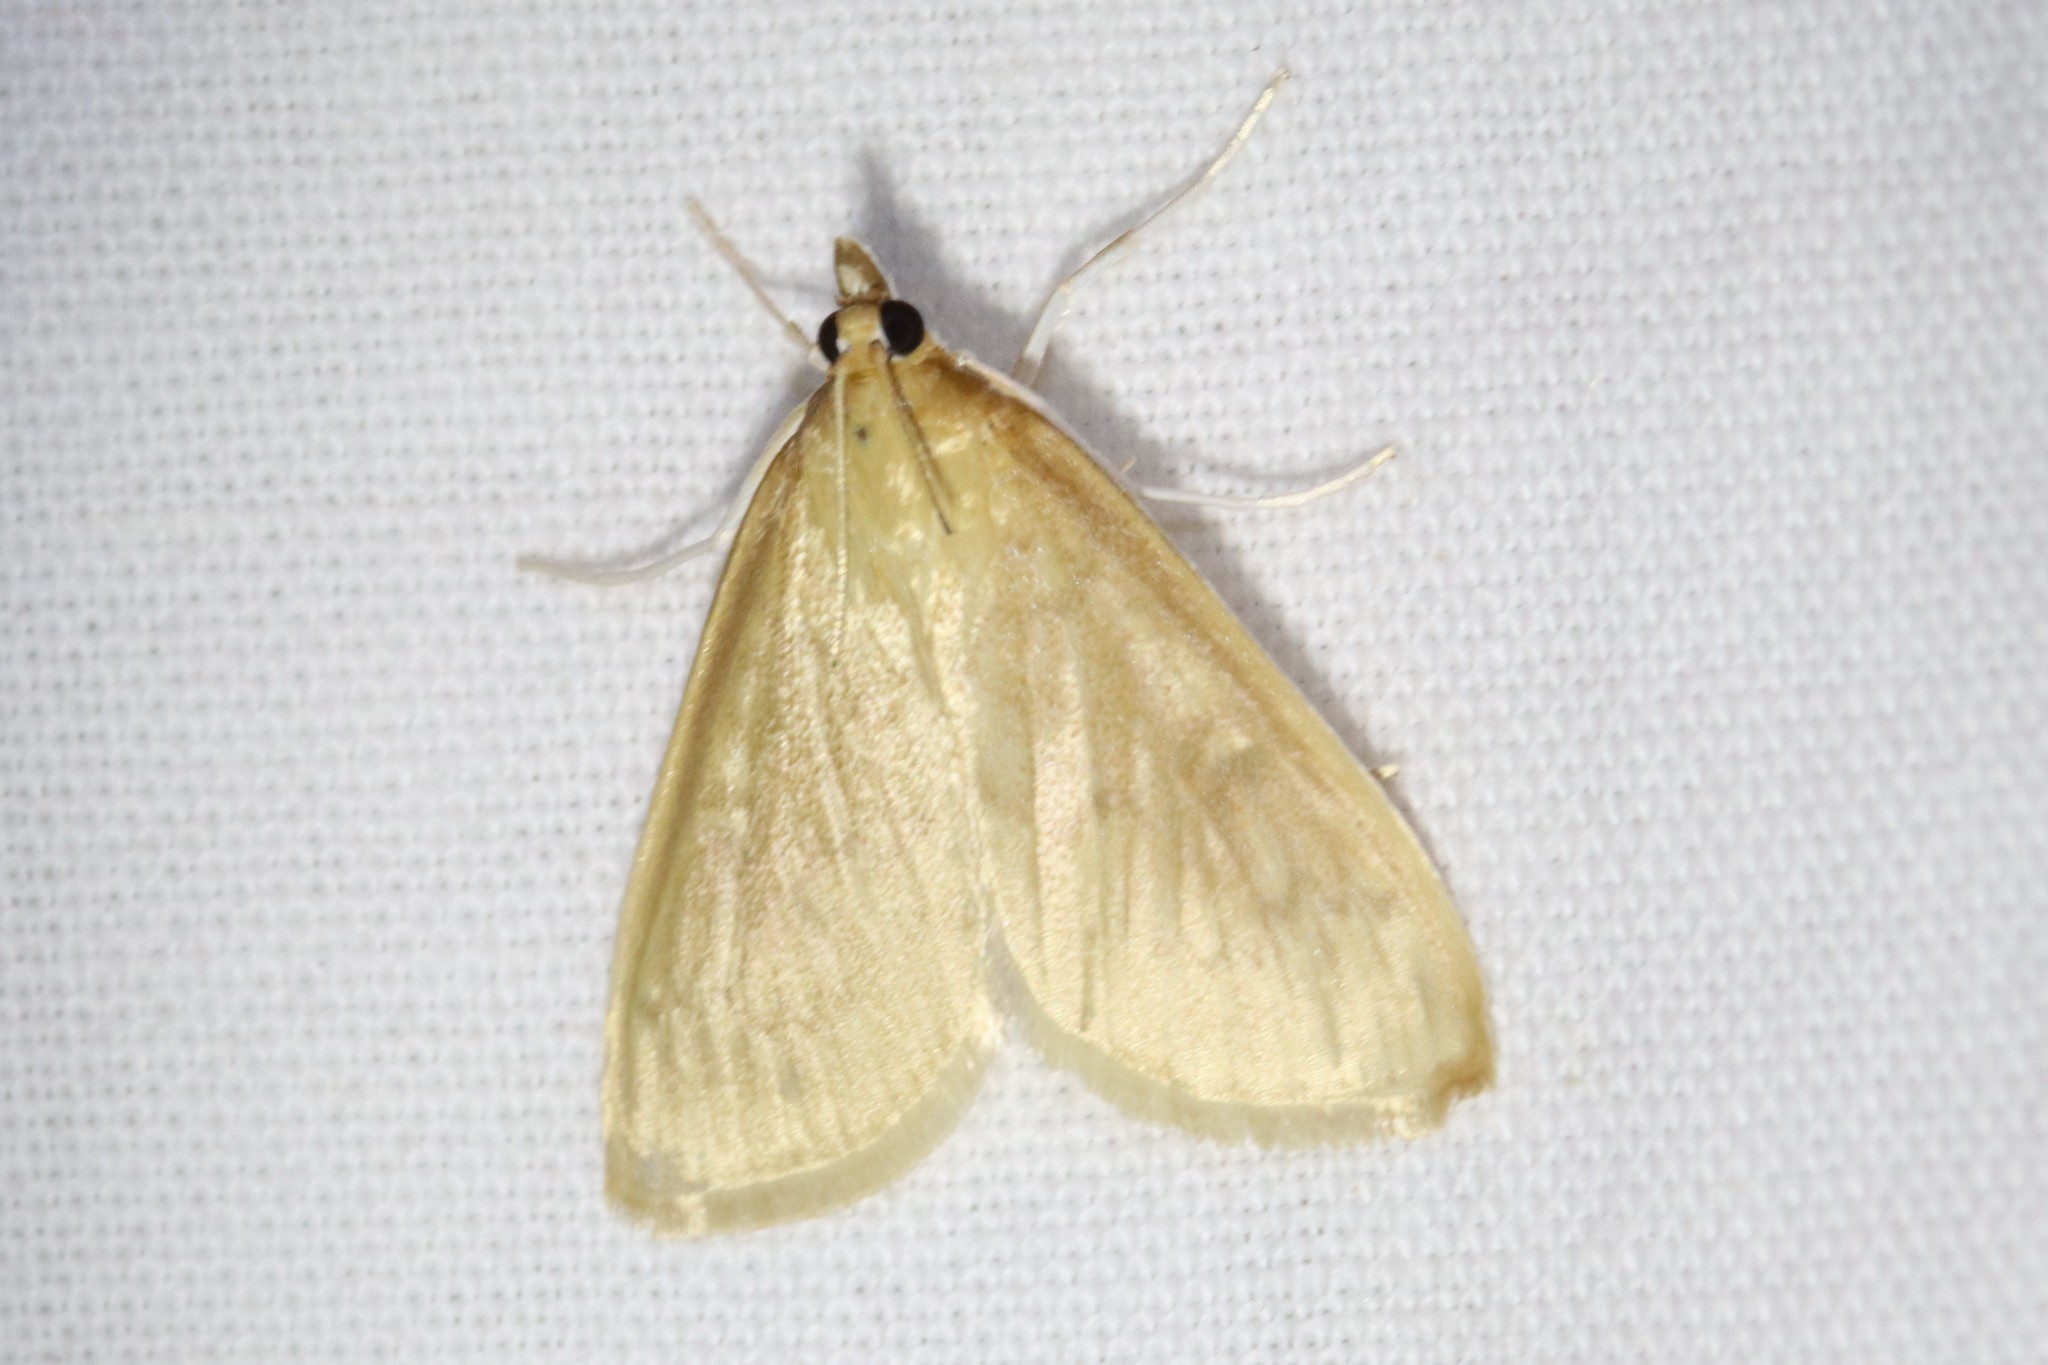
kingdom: Animalia
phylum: Arthropoda
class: Insecta
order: Lepidoptera
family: Crambidae
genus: Anania
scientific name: Anania Framinghamia helvalis
